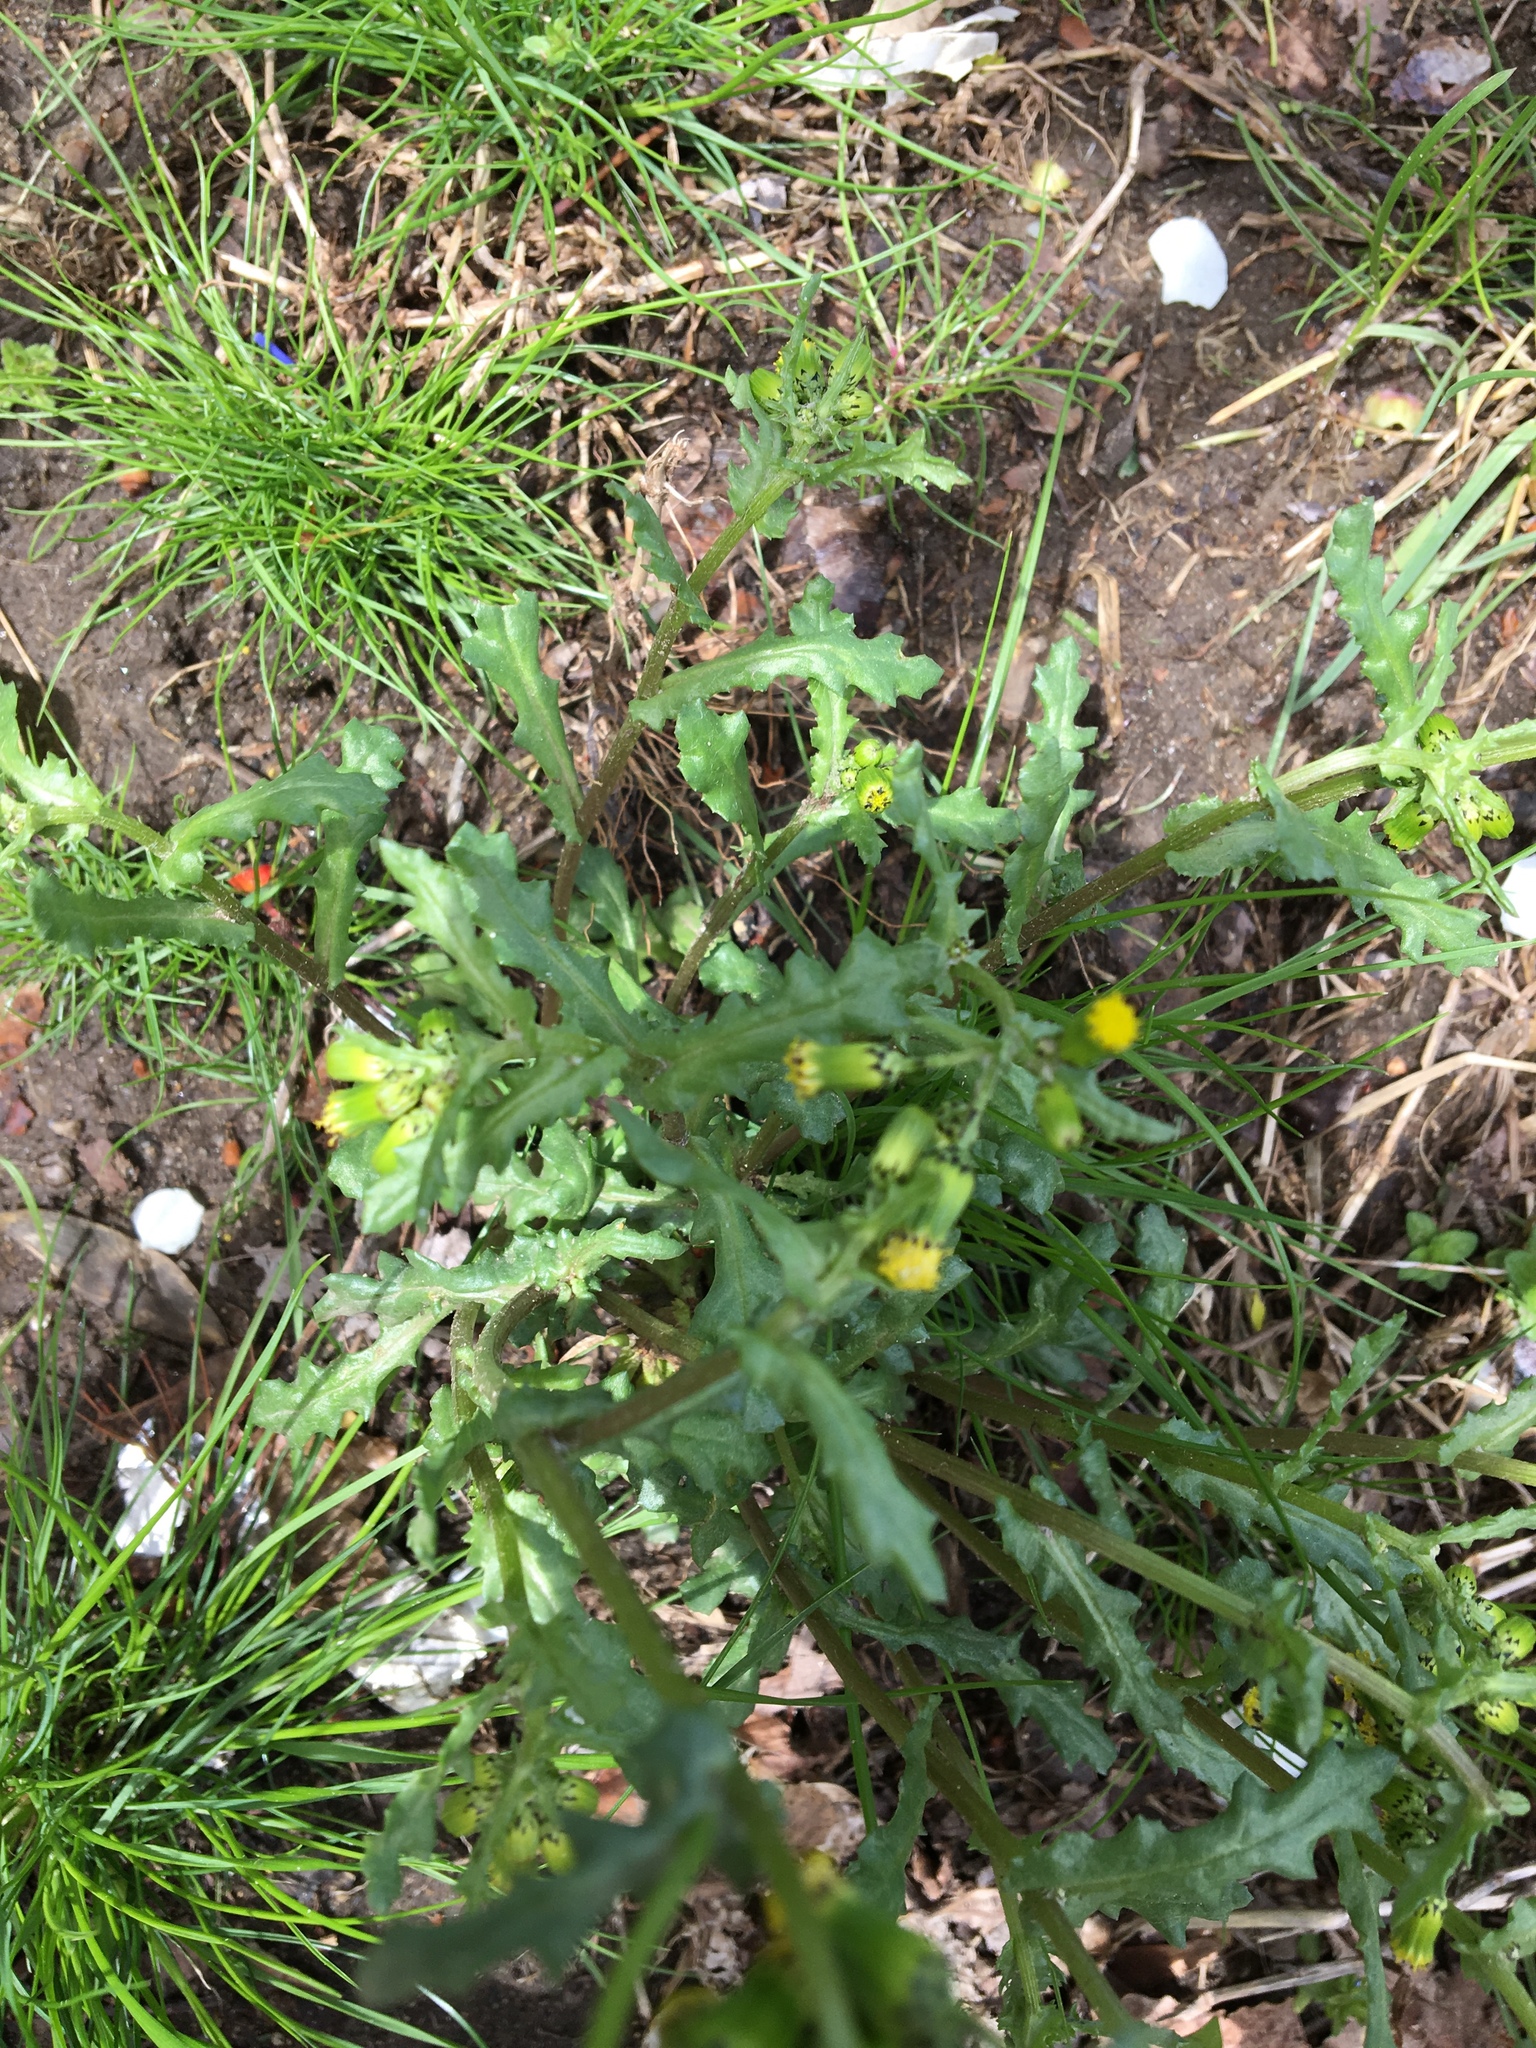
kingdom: Plantae
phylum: Tracheophyta
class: Magnoliopsida
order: Asterales
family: Asteraceae
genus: Senecio
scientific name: Senecio vulgaris
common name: Old-man-in-the-spring
